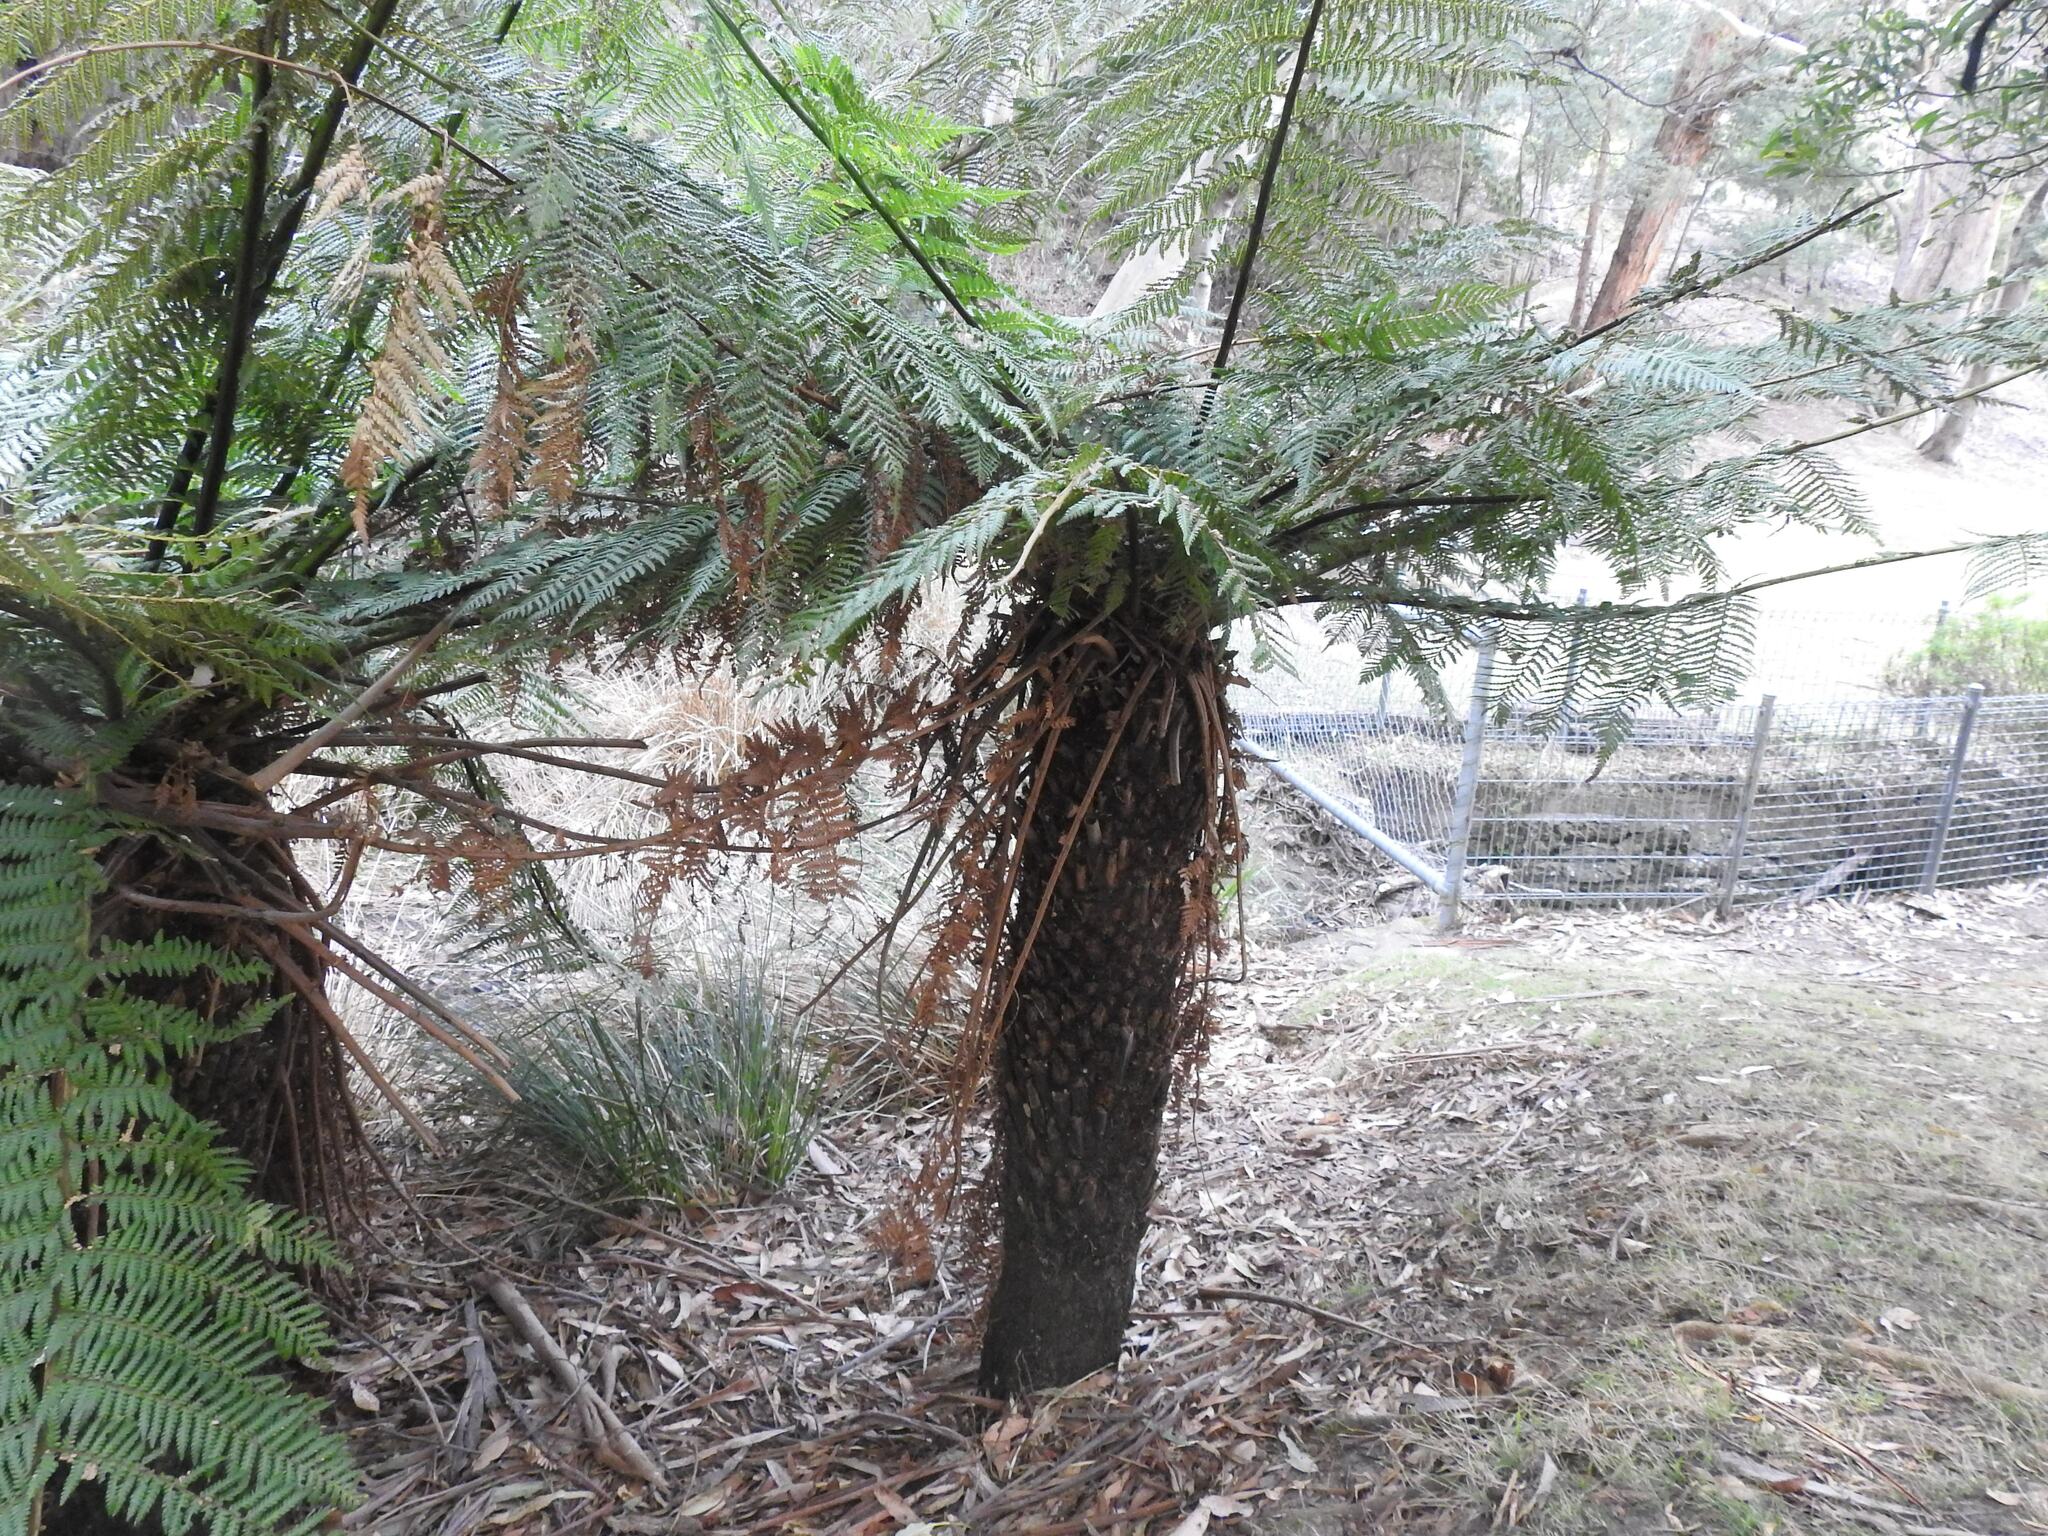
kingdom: Plantae
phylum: Tracheophyta
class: Polypodiopsida
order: Cyatheales
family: Dicksoniaceae
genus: Dicksonia
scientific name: Dicksonia antarctica
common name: Australian treefern
